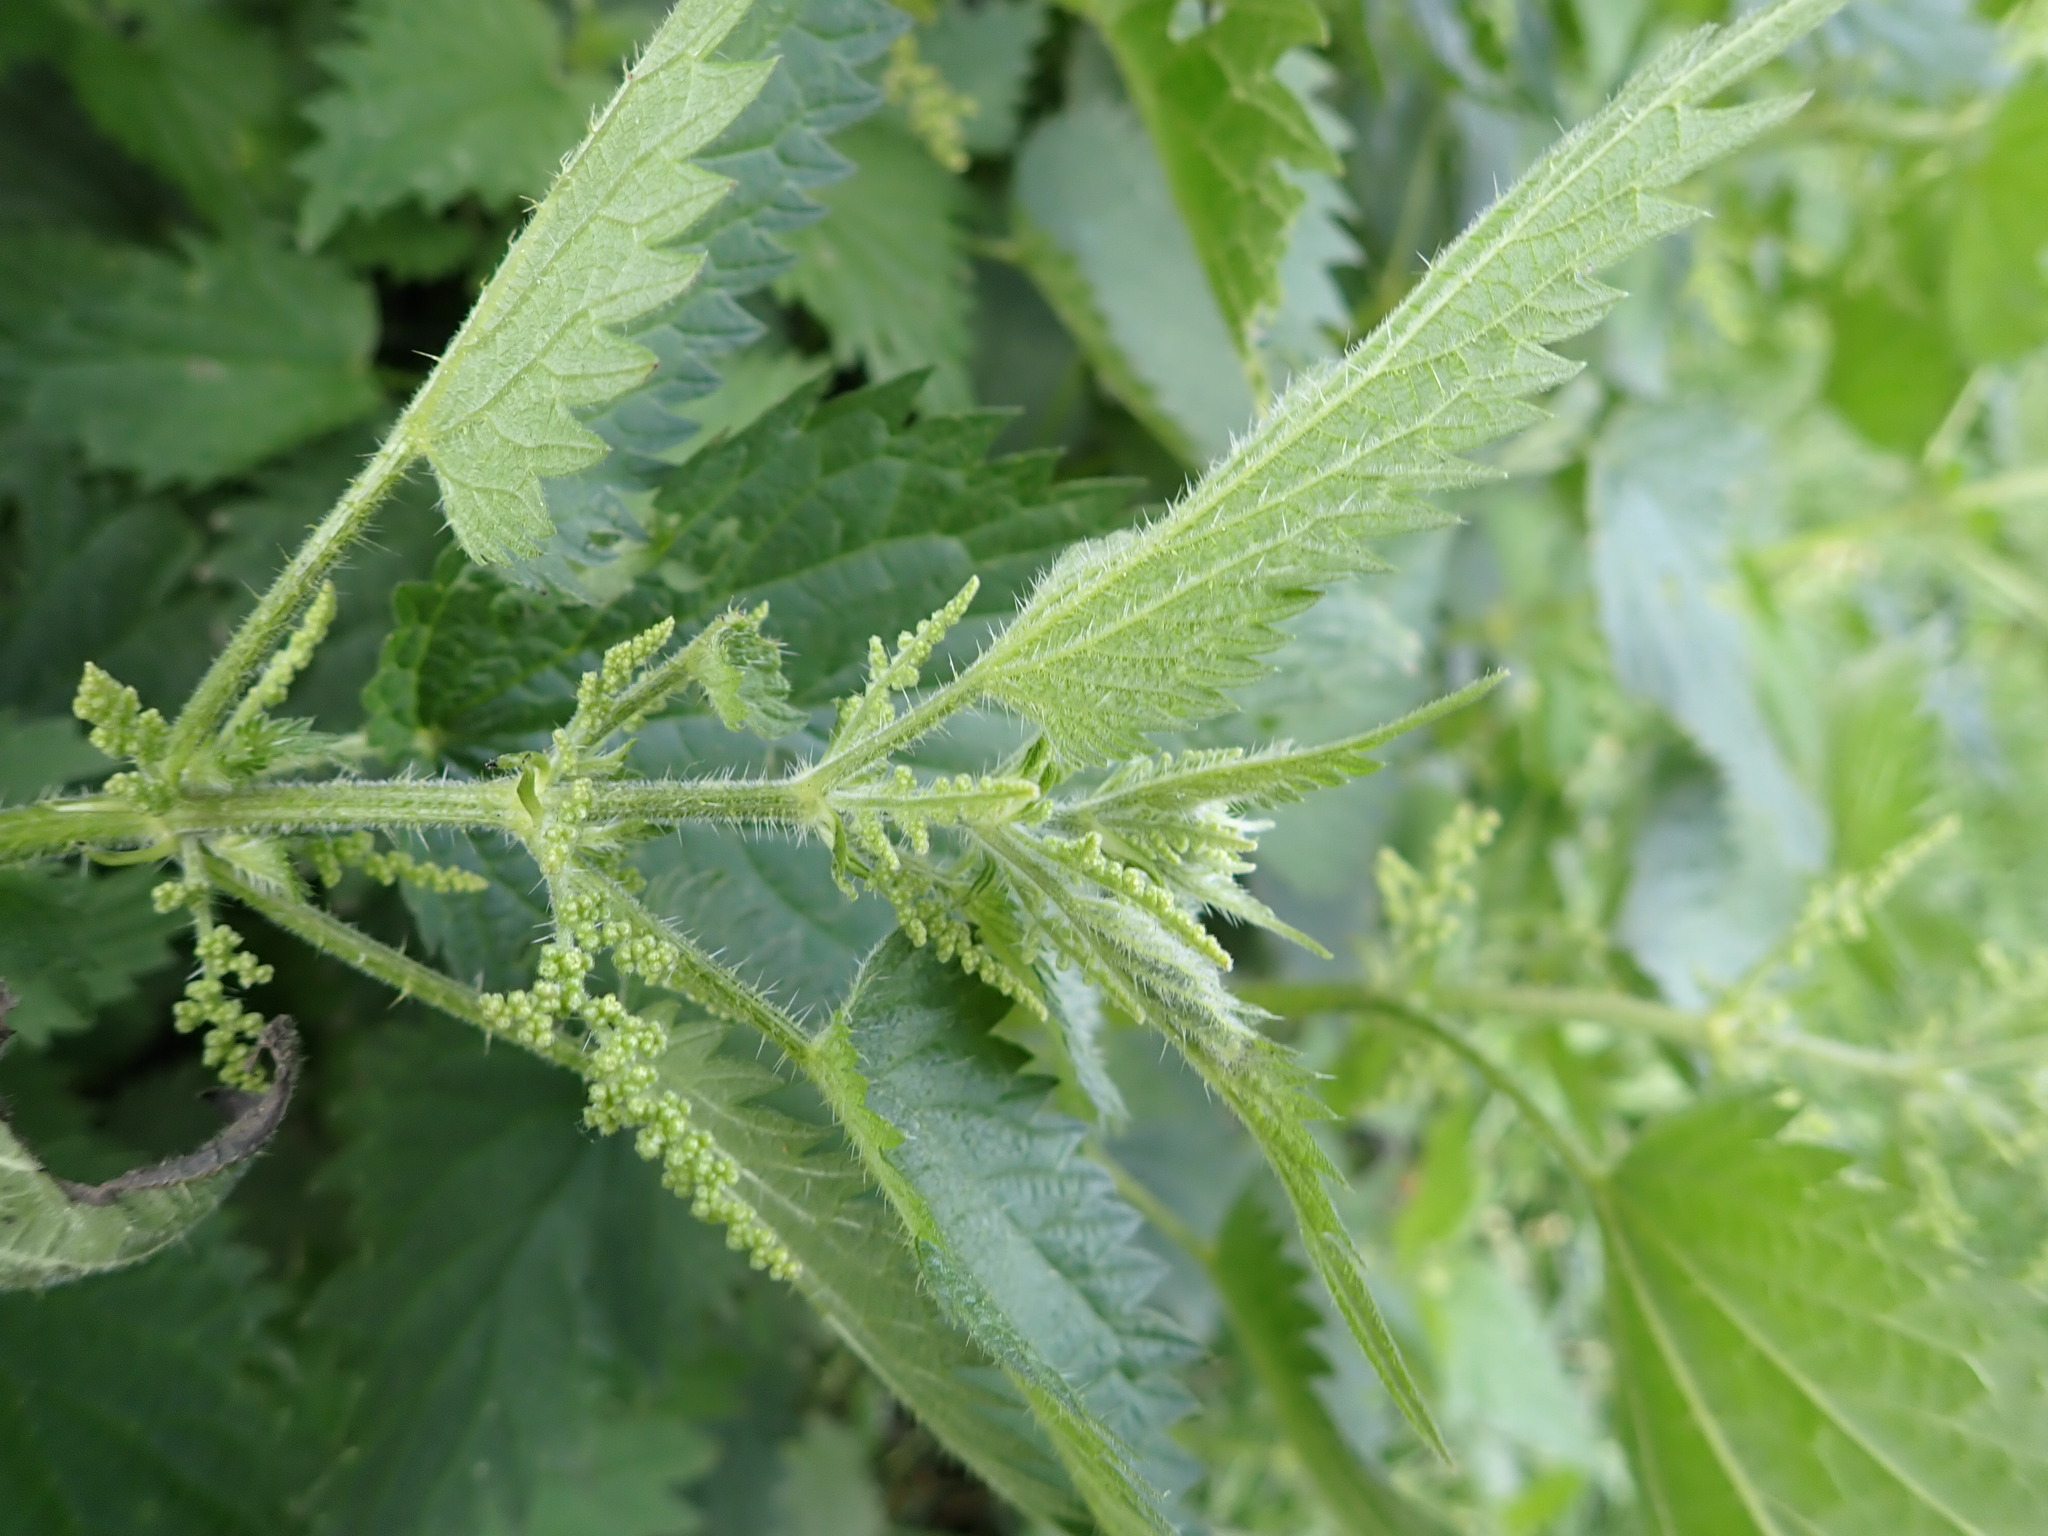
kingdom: Plantae
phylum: Tracheophyta
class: Magnoliopsida
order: Rosales
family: Urticaceae
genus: Urtica
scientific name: Urtica dioica
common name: Common nettle
